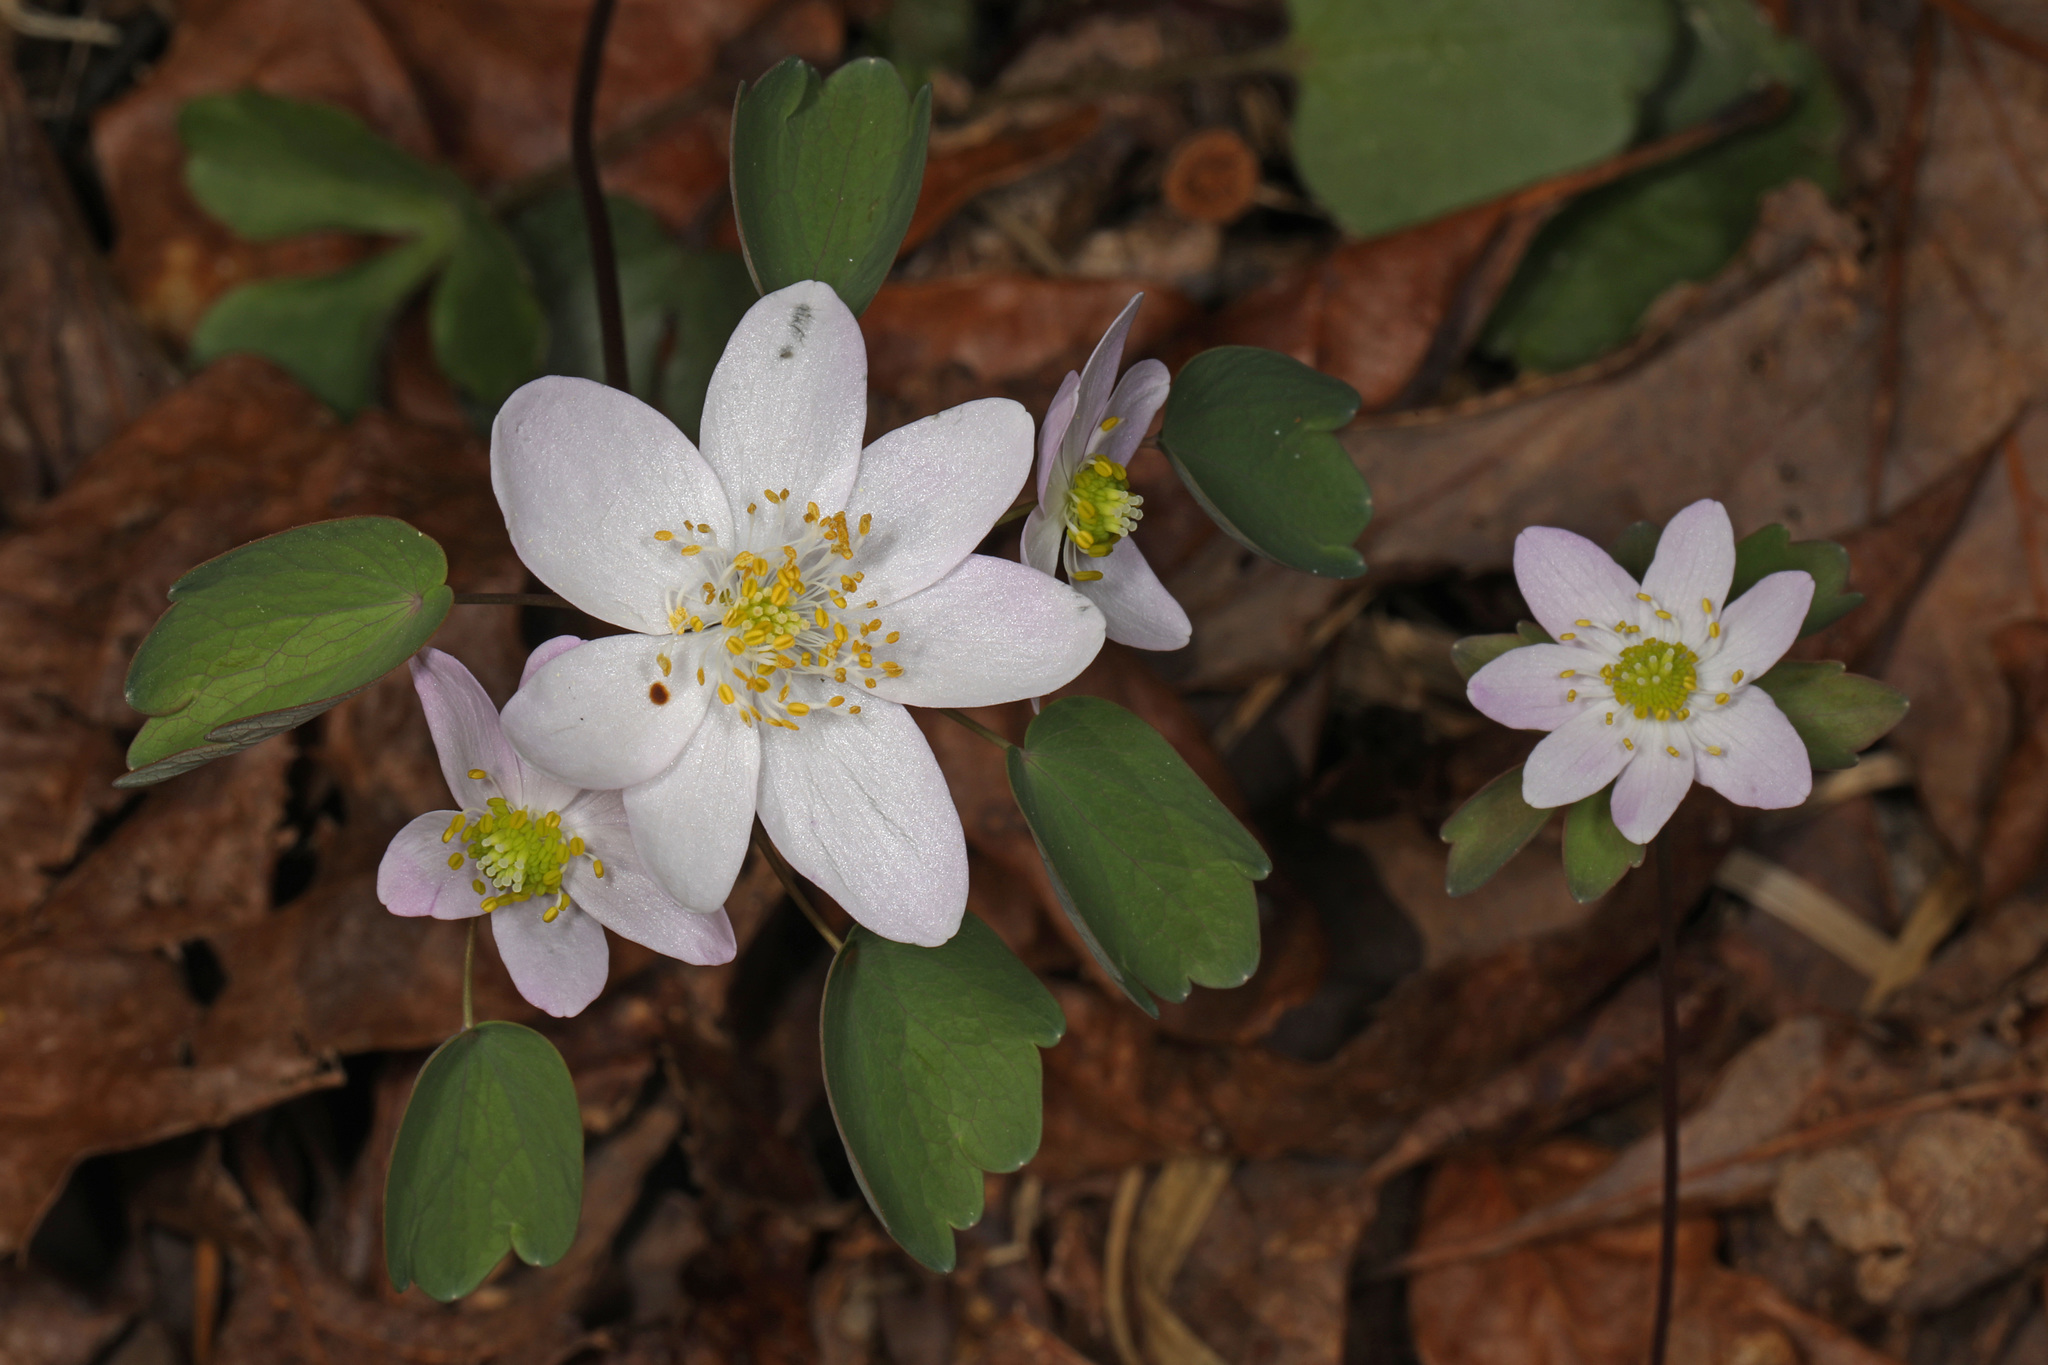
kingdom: Plantae
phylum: Tracheophyta
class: Magnoliopsida
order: Ranunculales
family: Ranunculaceae
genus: Thalictrum
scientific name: Thalictrum thalictroides
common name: Rue-anemone
